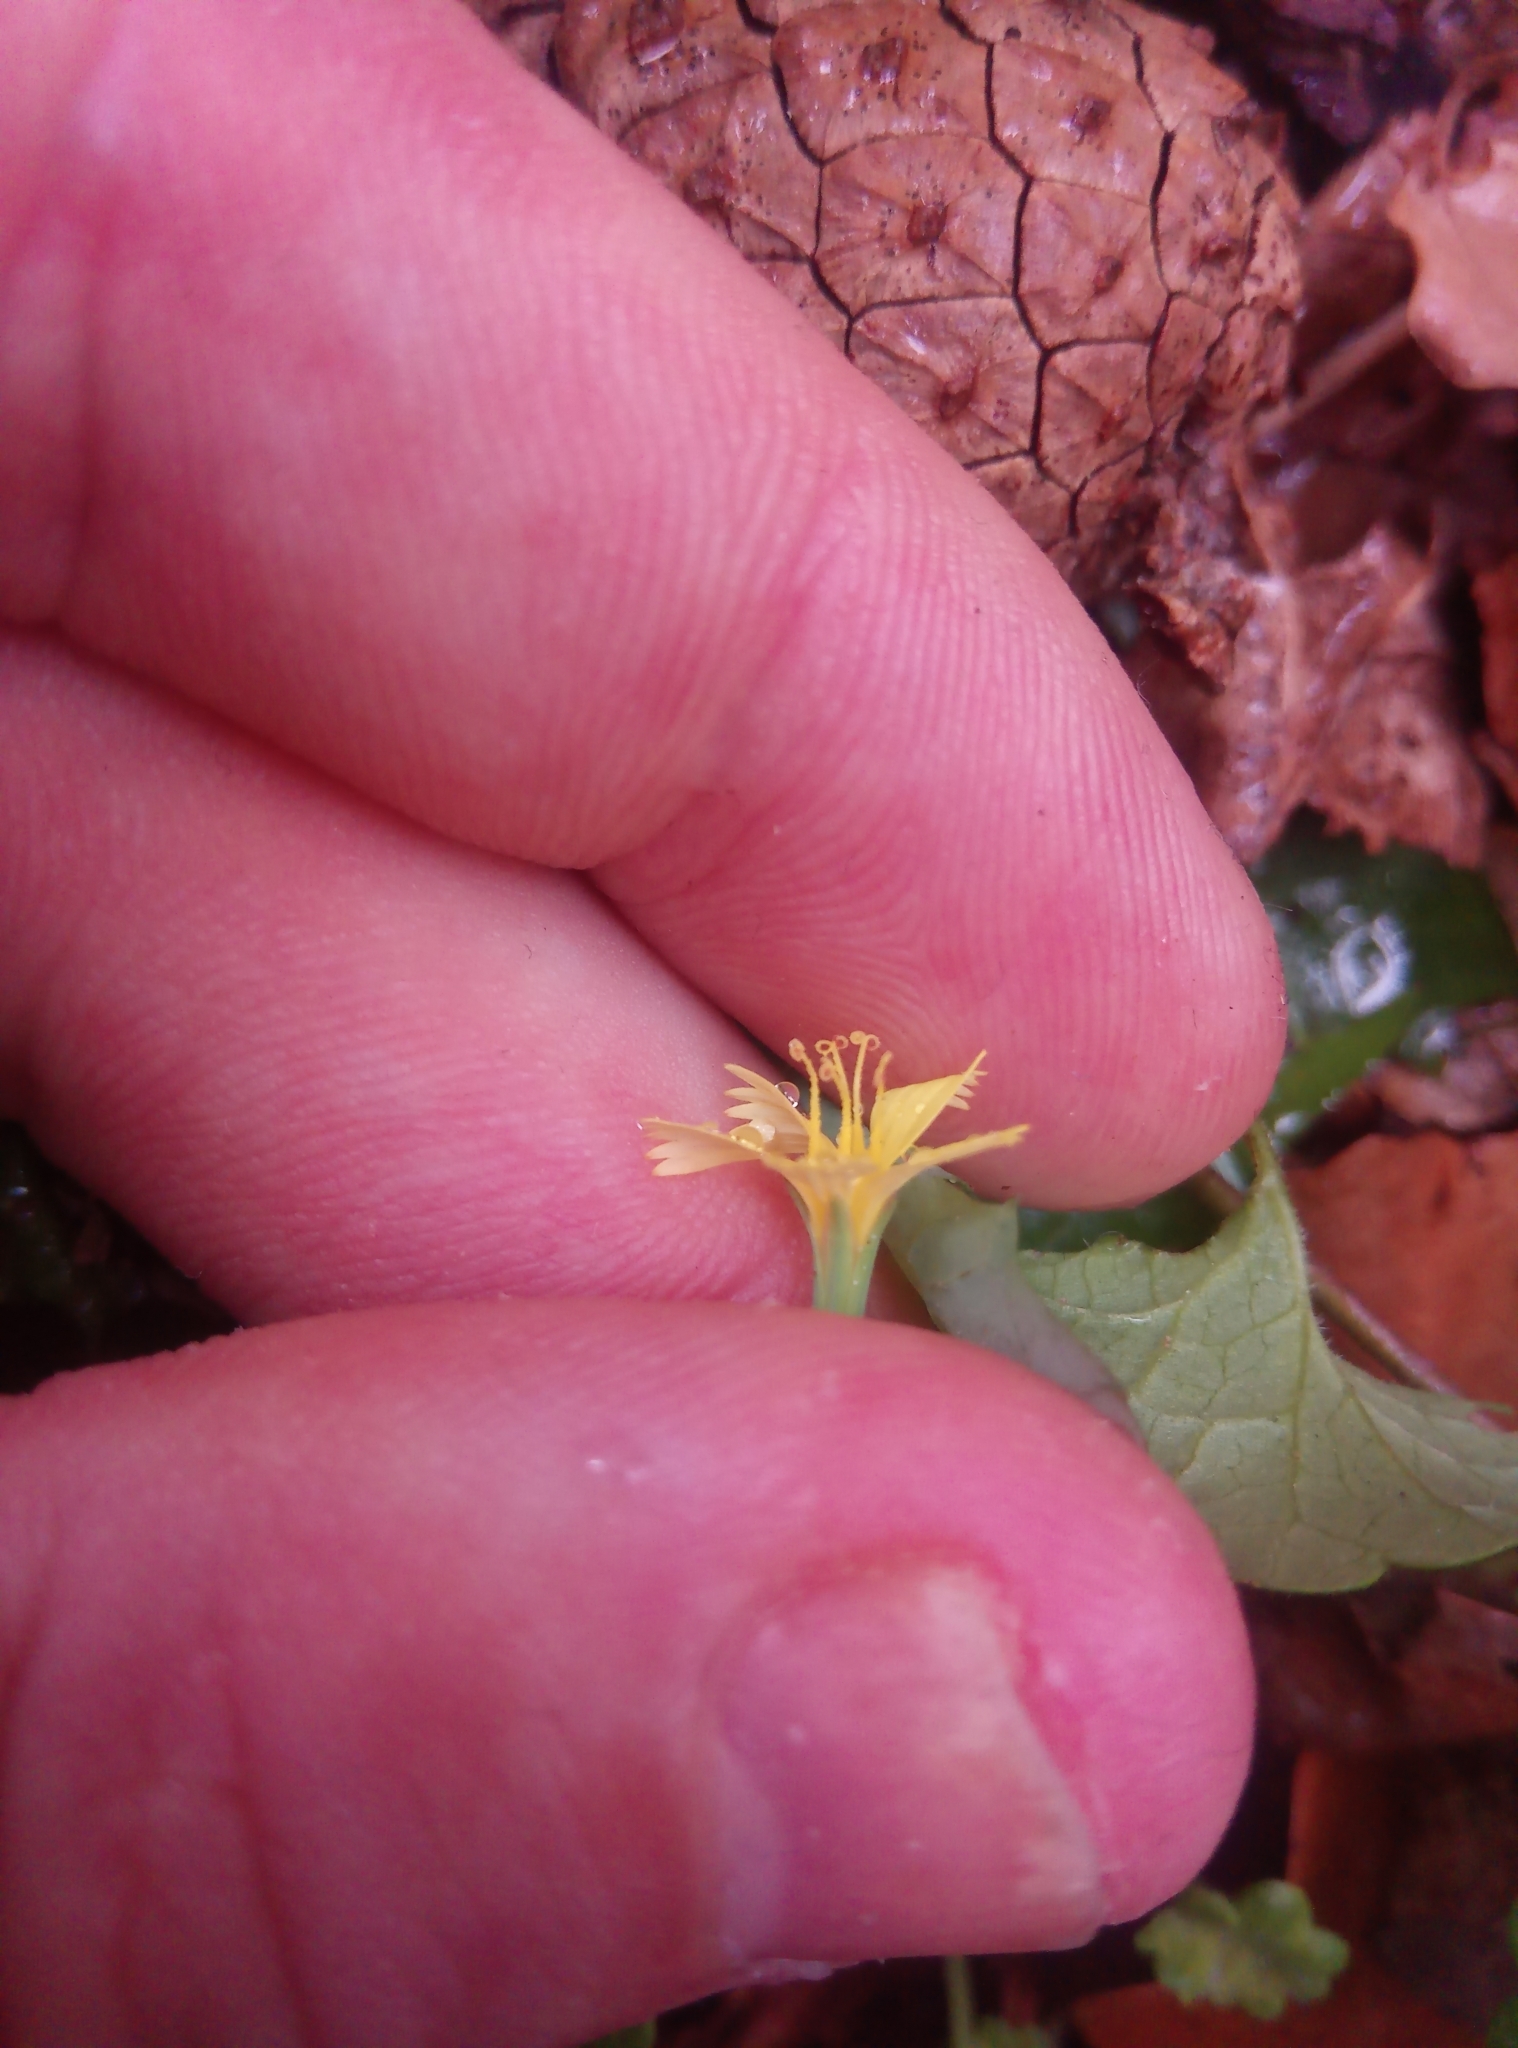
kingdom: Plantae
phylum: Tracheophyta
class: Magnoliopsida
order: Asterales
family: Asteraceae
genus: Mycelis
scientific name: Mycelis muralis
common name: Wall lettuce
